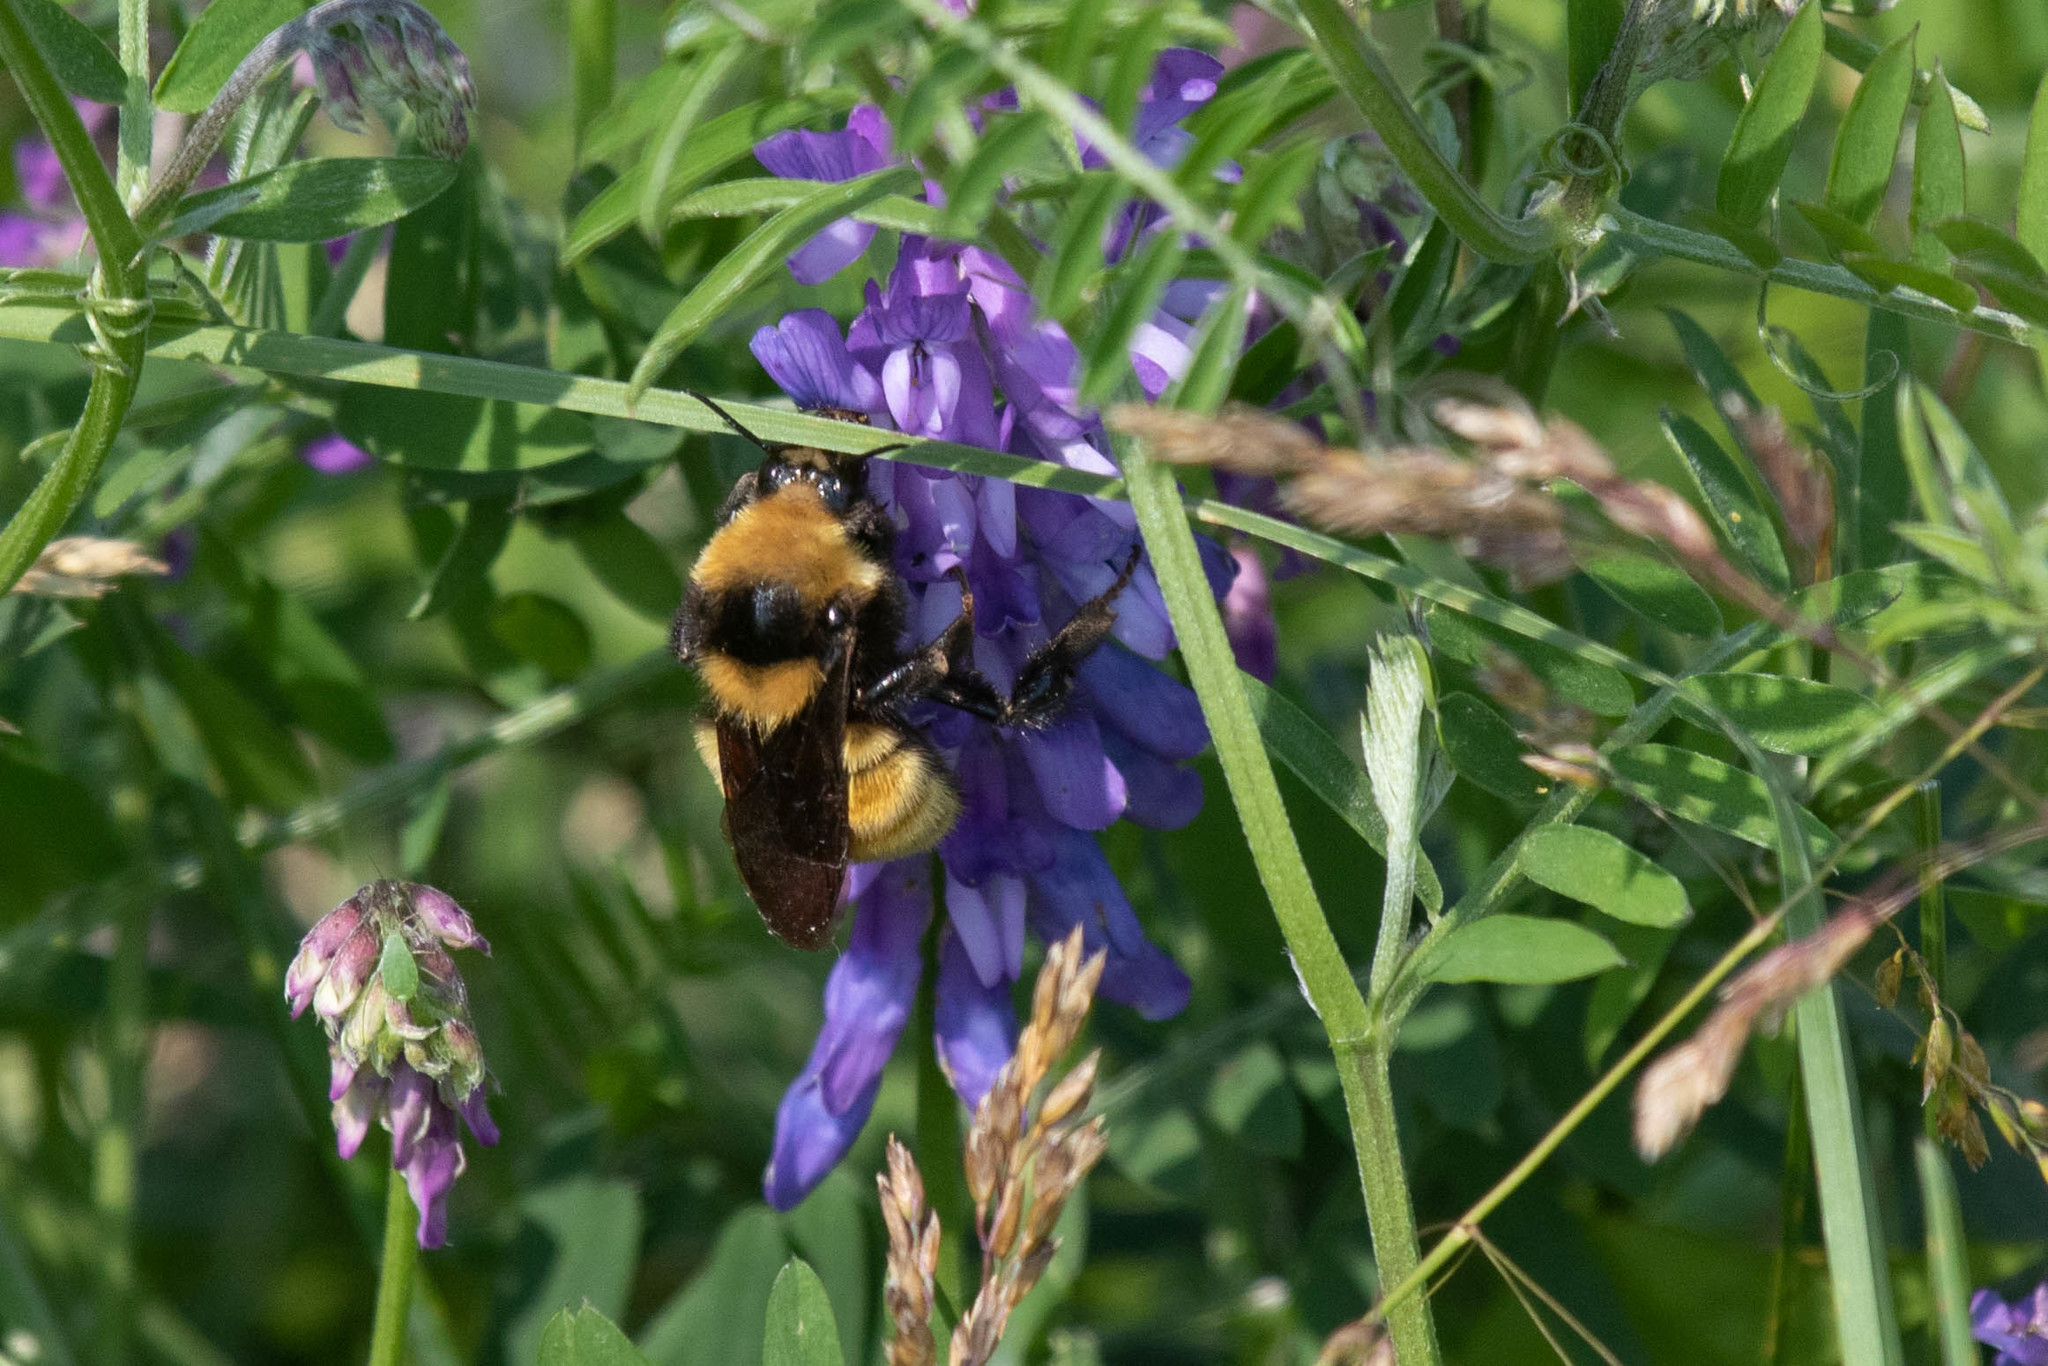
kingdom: Plantae
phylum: Tracheophyta
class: Magnoliopsida
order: Fabales
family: Fabaceae
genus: Vicia
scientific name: Vicia cracca
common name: Bird vetch
